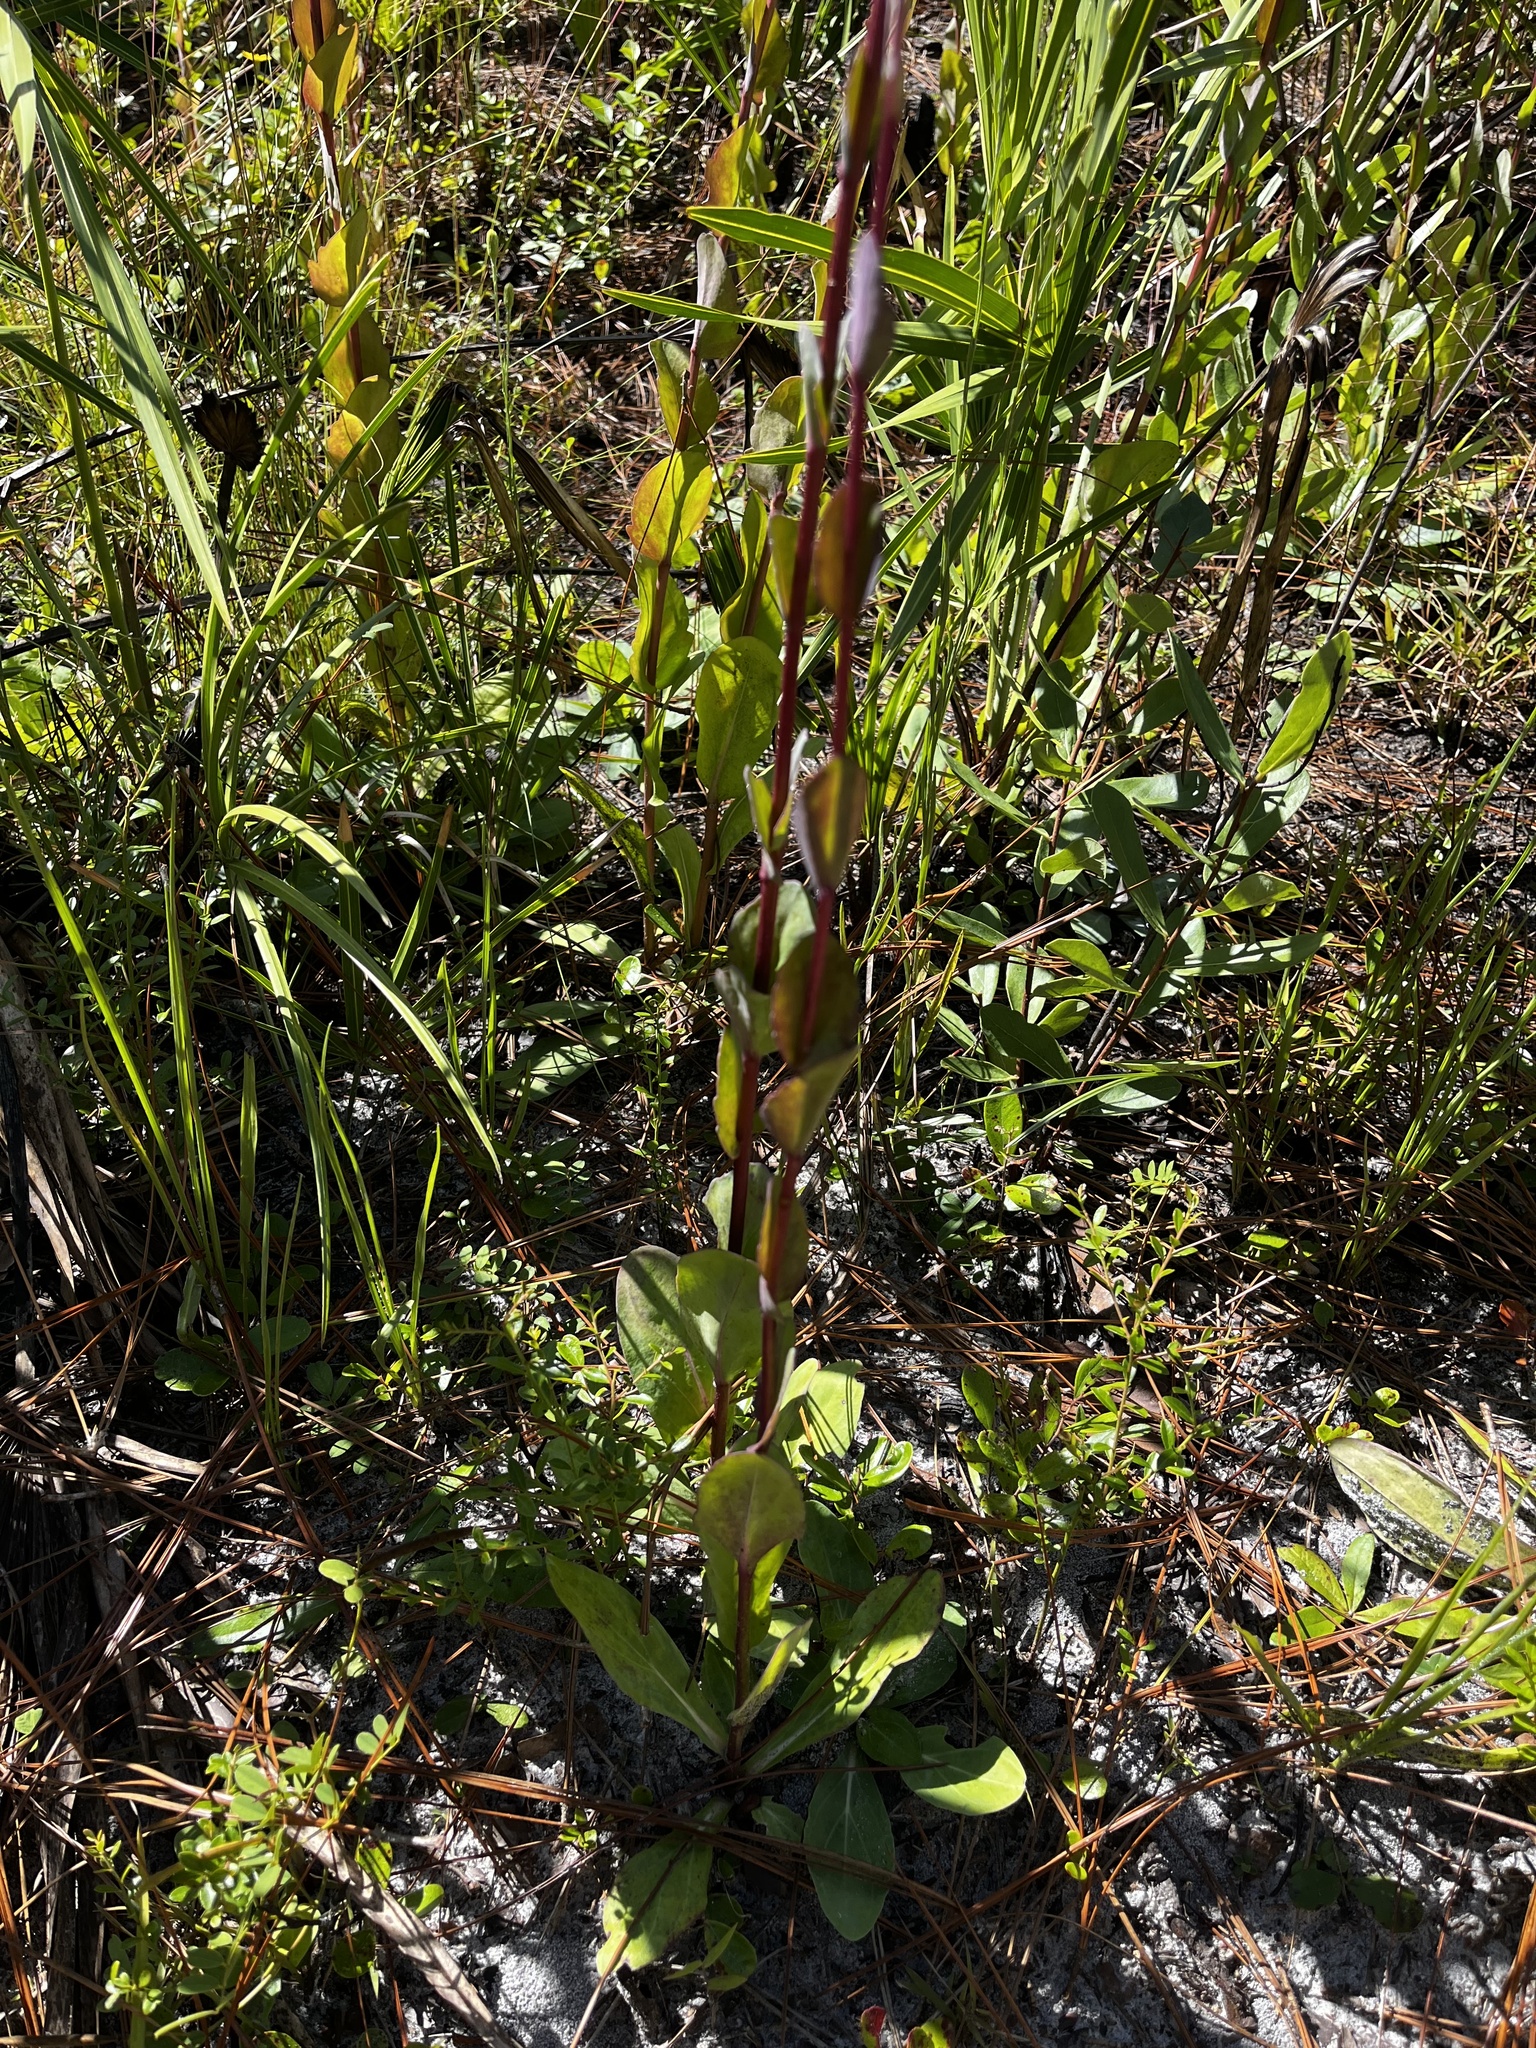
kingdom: Plantae
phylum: Tracheophyta
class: Magnoliopsida
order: Asterales
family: Asteraceae
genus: Carphephorus
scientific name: Carphephorus odoratissimus
